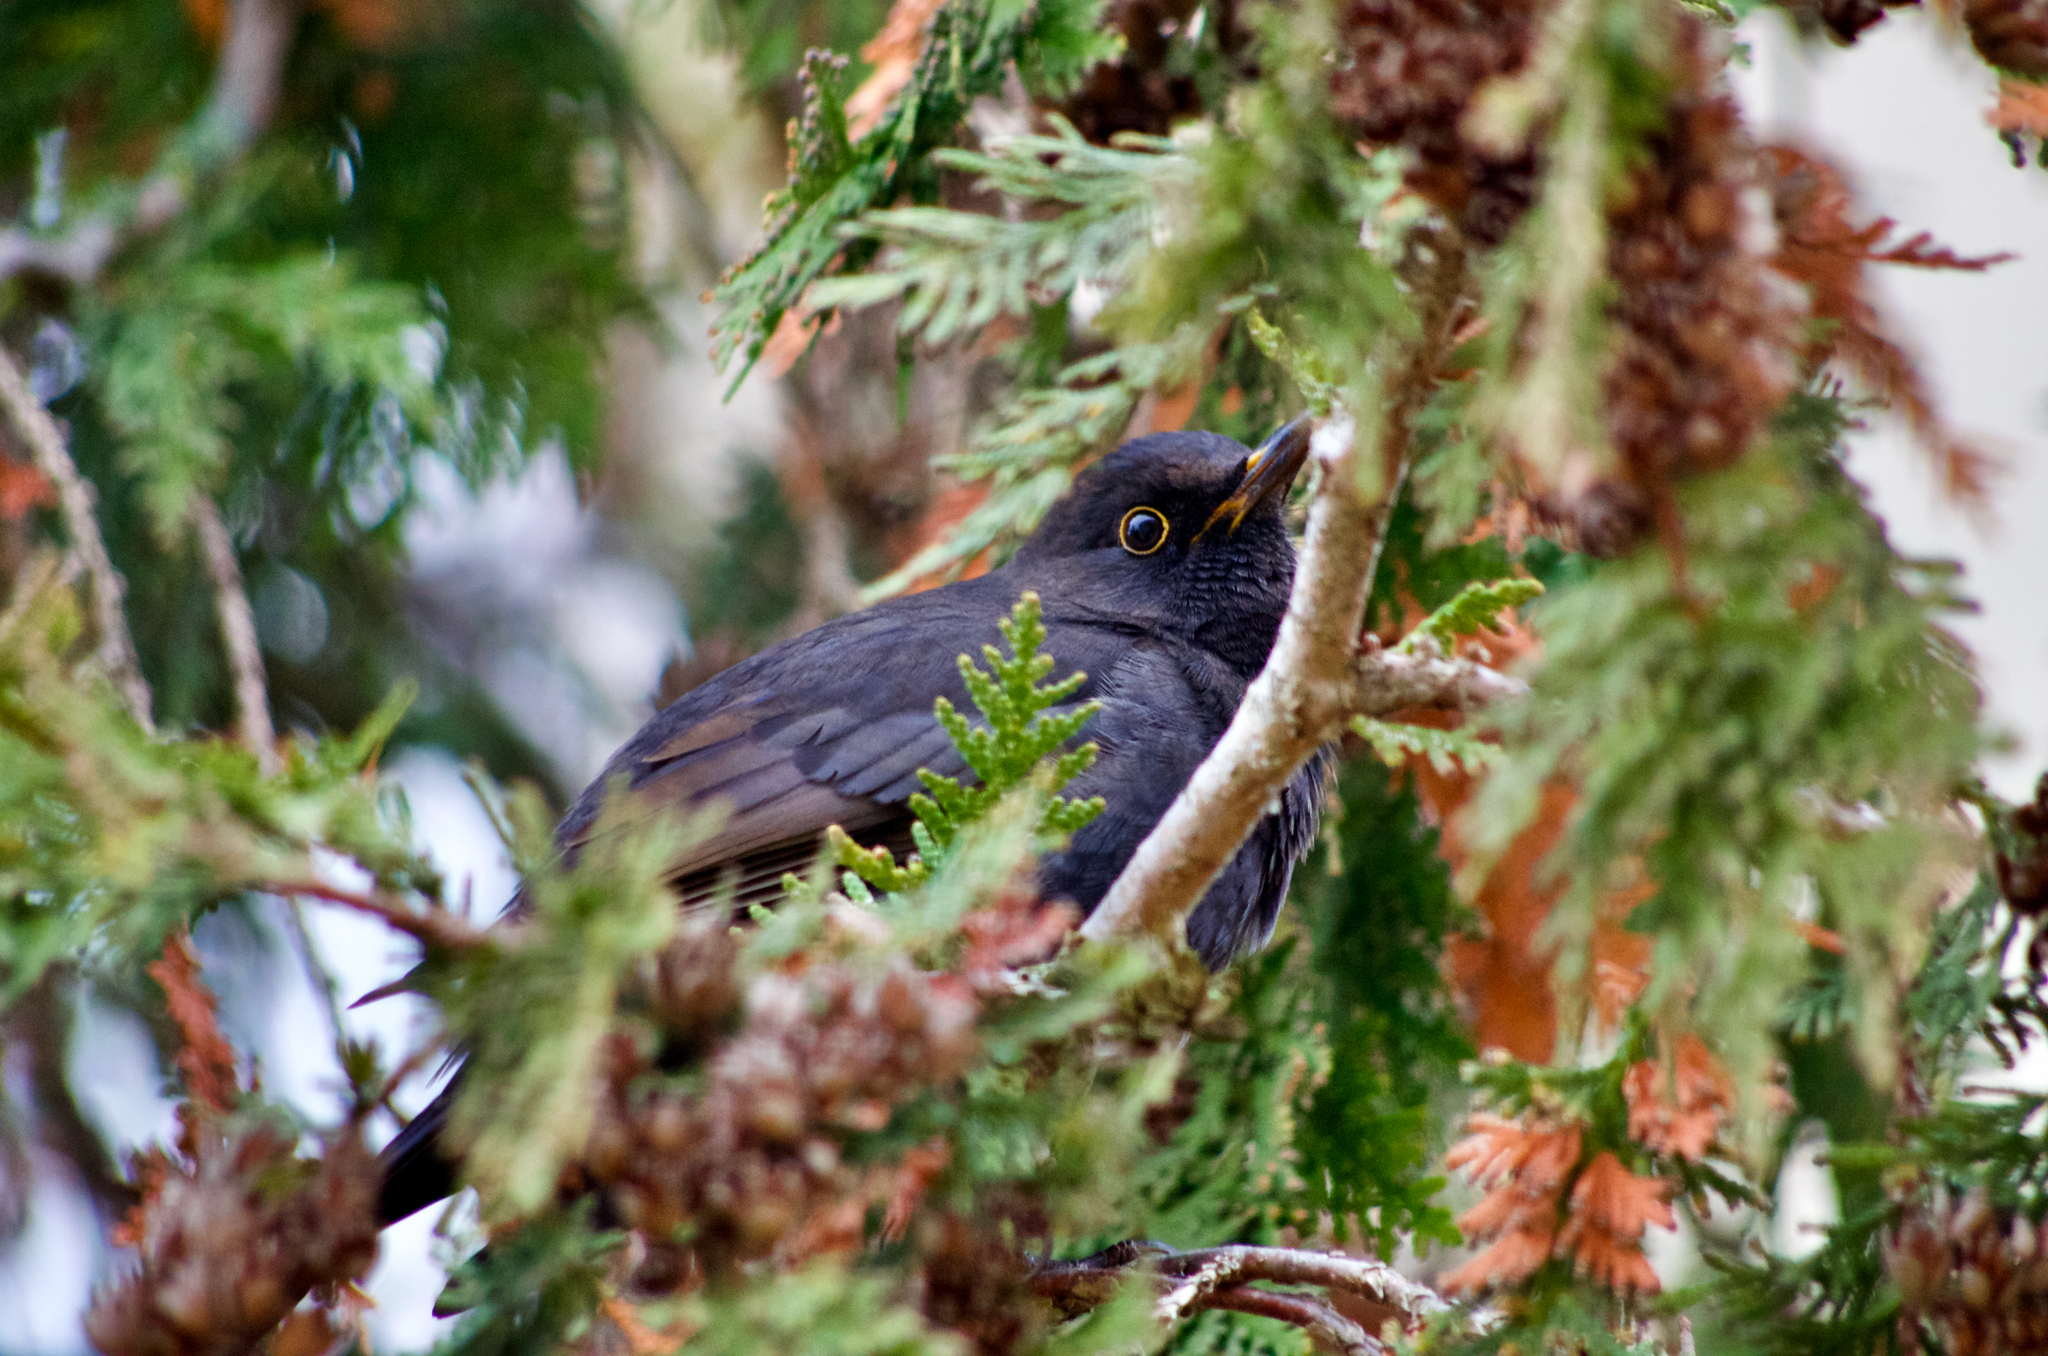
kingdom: Animalia
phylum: Chordata
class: Aves
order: Passeriformes
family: Turdidae
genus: Turdus
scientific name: Turdus merula
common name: Common blackbird
